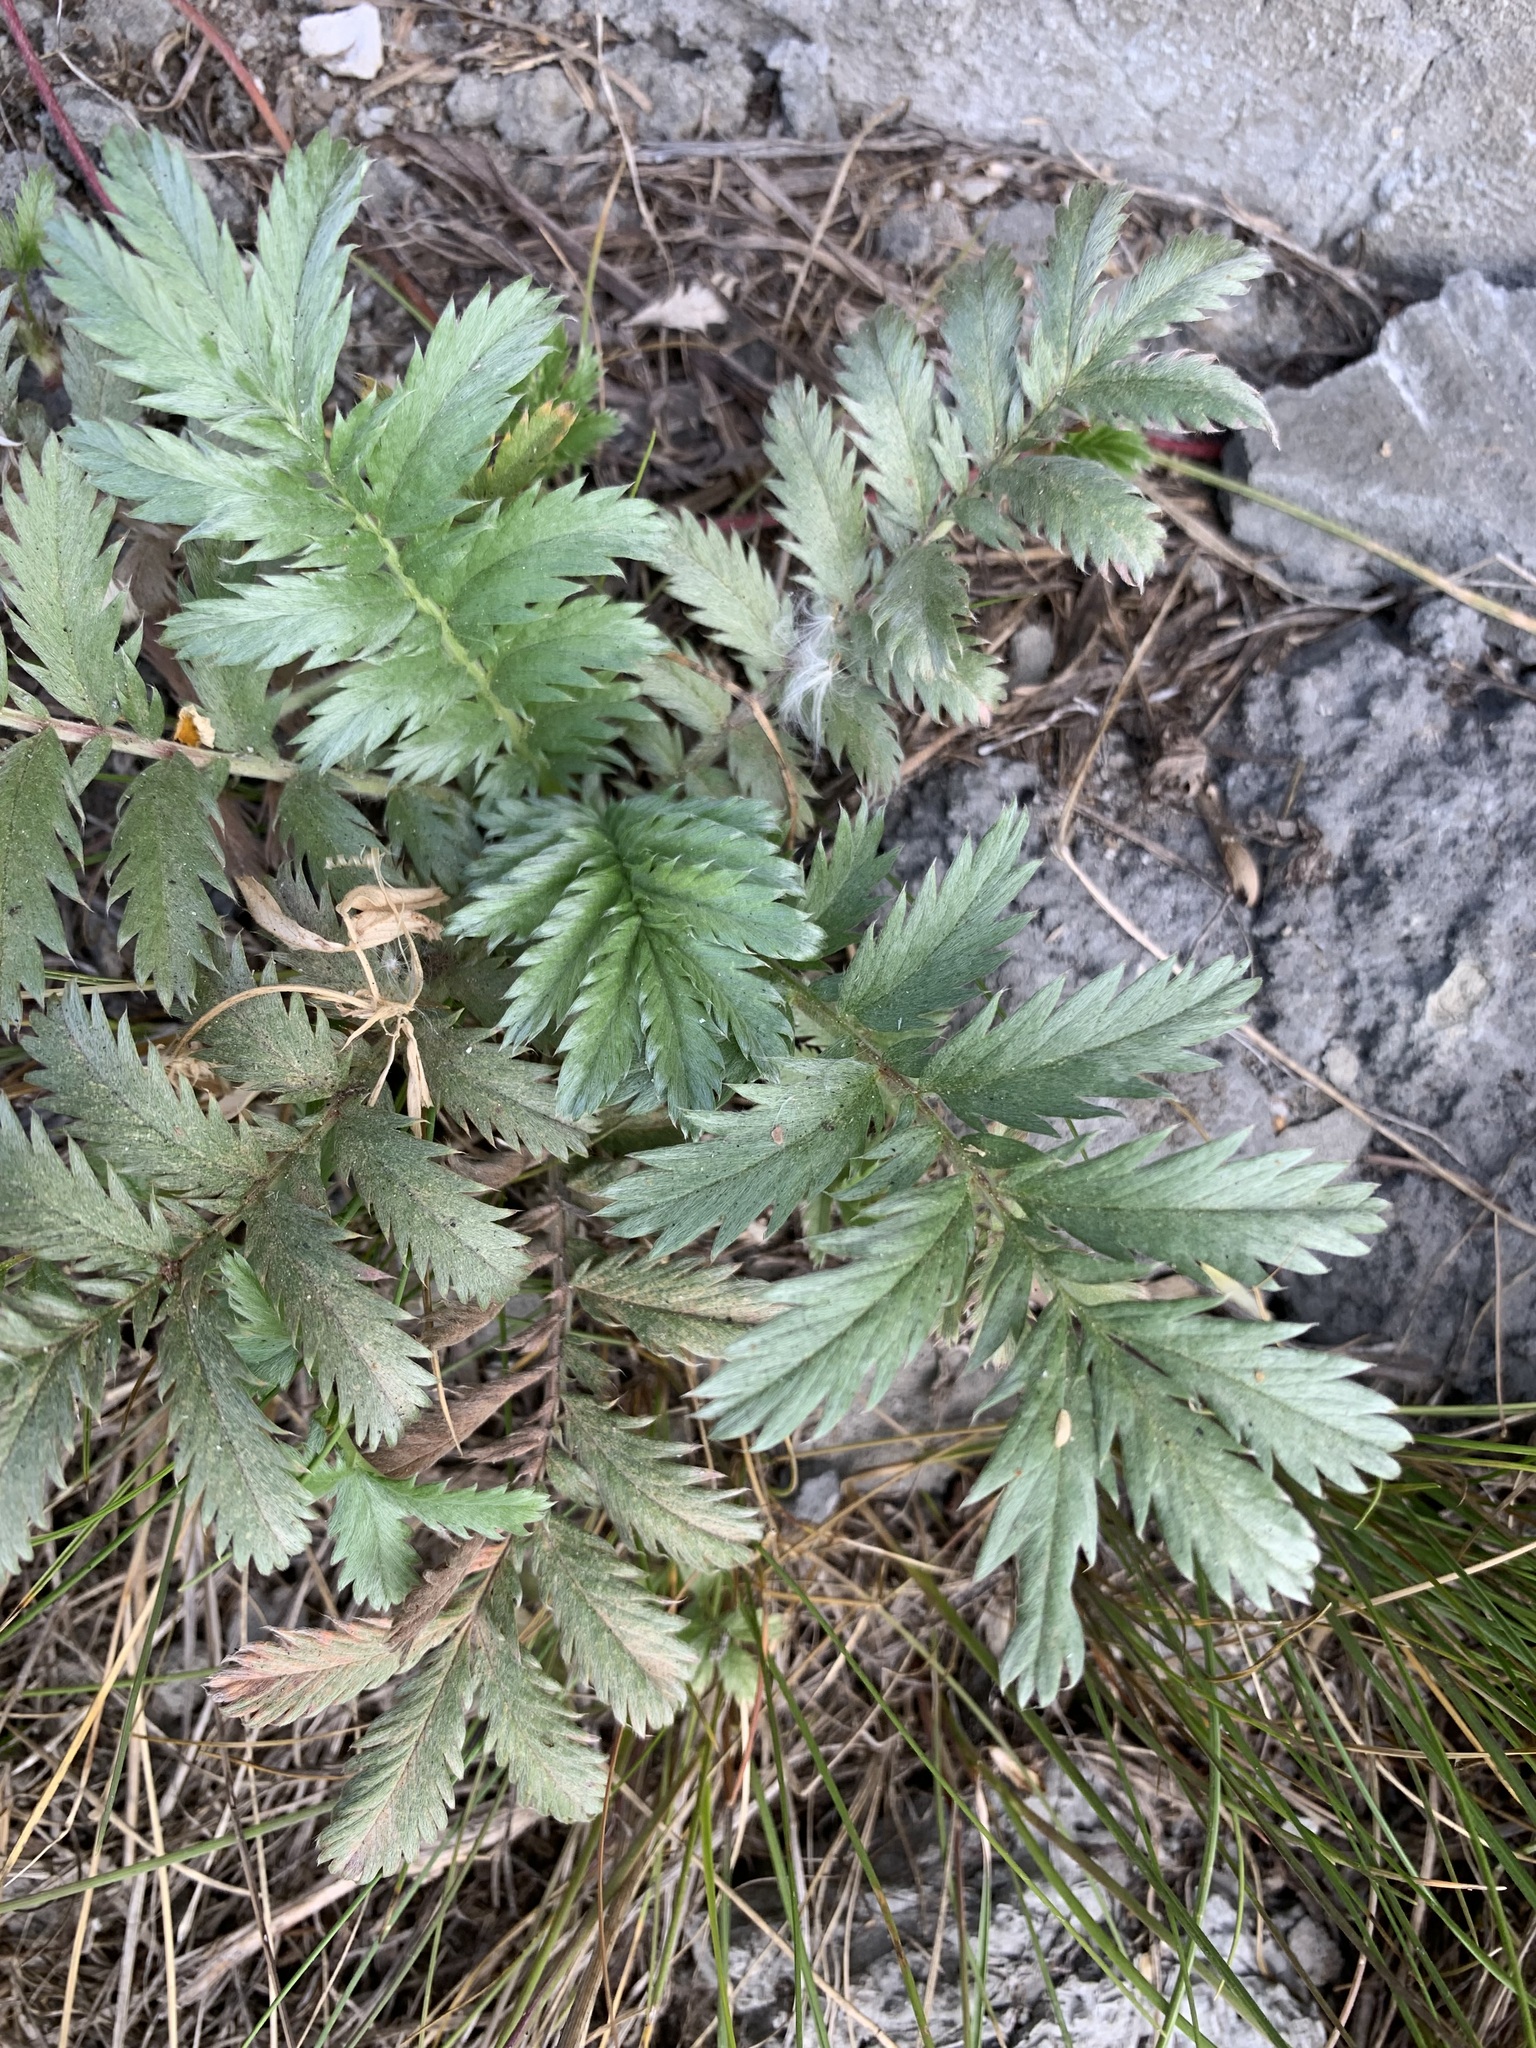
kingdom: Plantae
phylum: Tracheophyta
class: Magnoliopsida
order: Rosales
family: Rosaceae
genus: Argentina
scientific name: Argentina anserina
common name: Common silverweed
